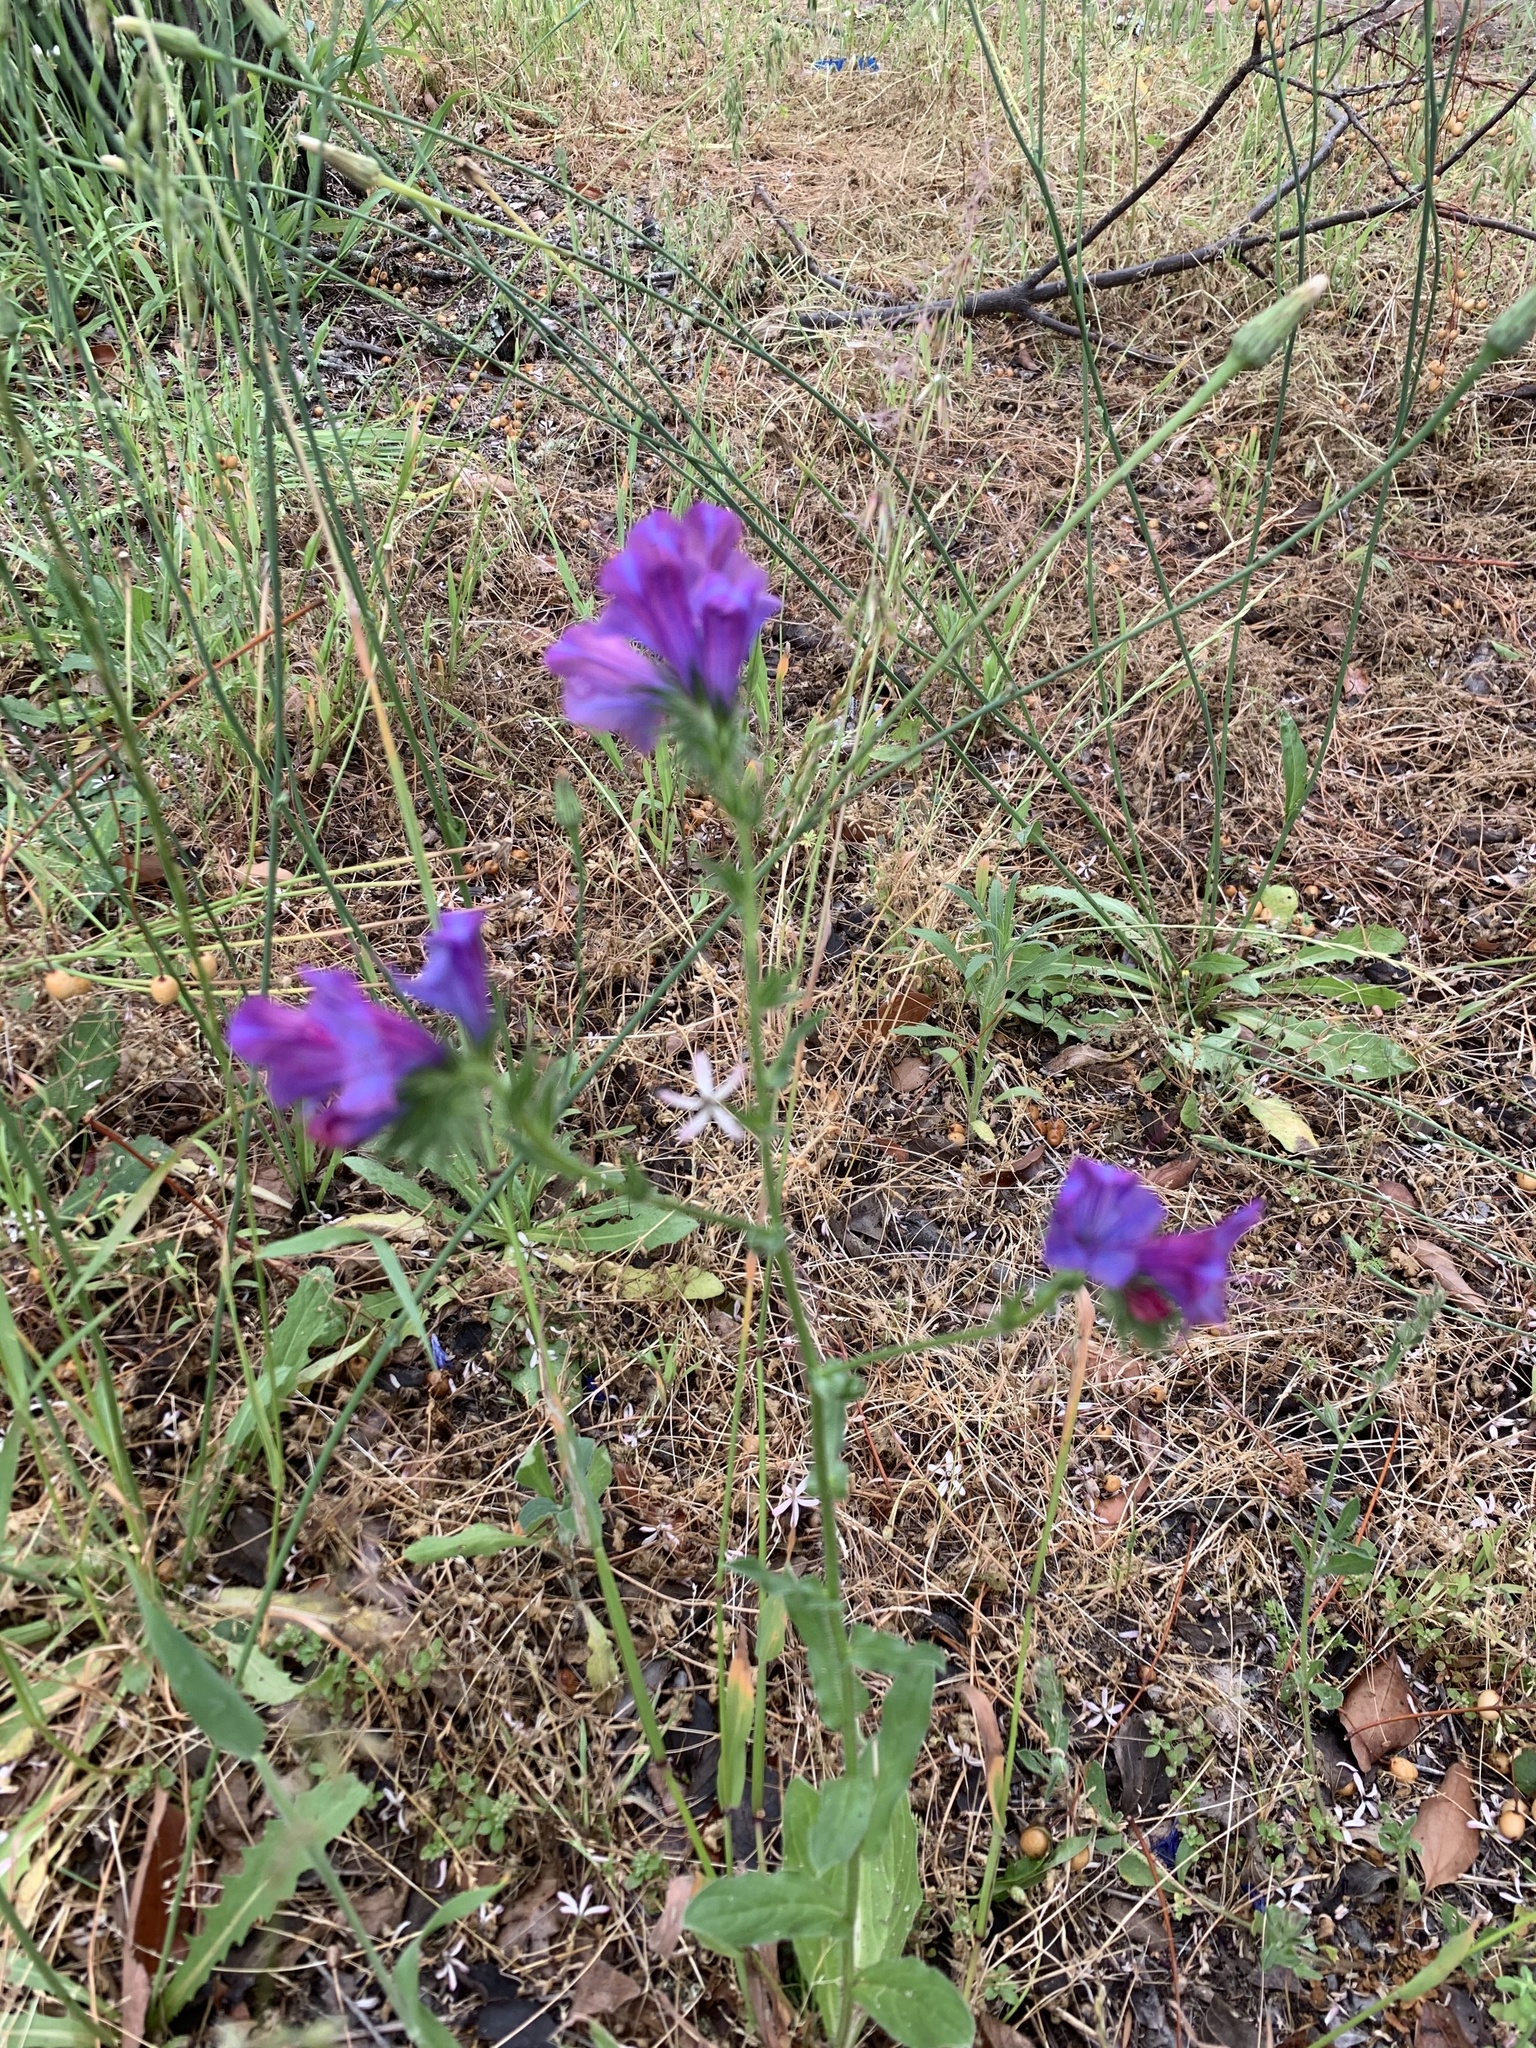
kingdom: Plantae
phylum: Tracheophyta
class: Magnoliopsida
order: Boraginales
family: Boraginaceae
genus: Echium
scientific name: Echium plantagineum
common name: Purple viper's-bugloss
